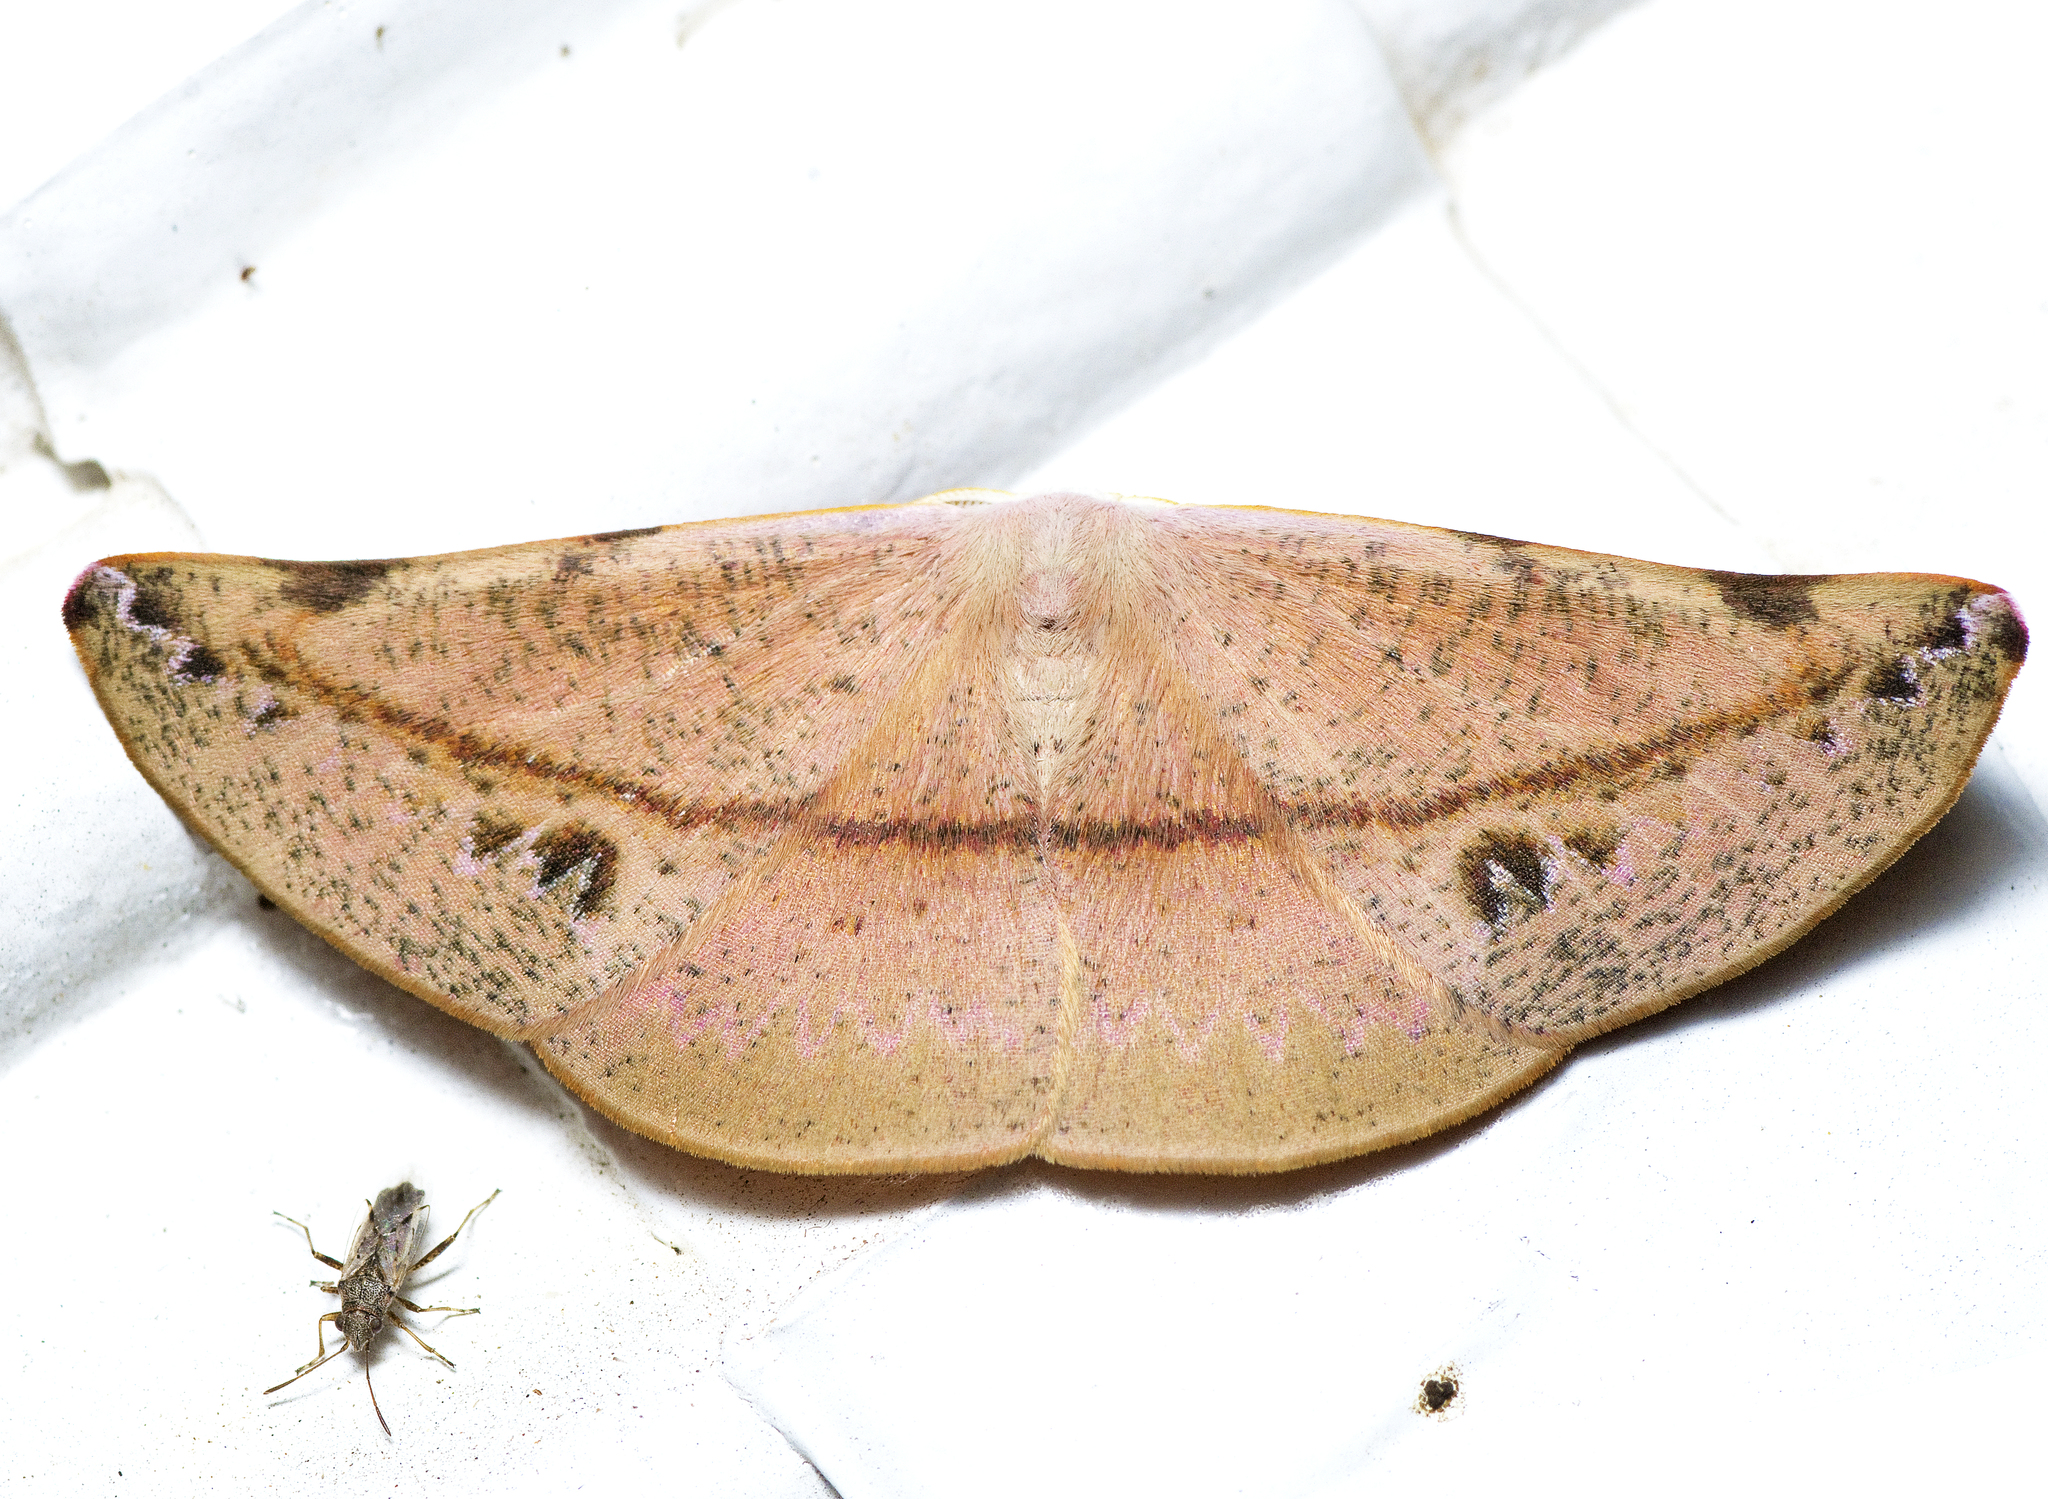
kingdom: Animalia
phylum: Arthropoda
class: Insecta
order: Lepidoptera
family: Geometridae
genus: Onycodes
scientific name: Onycodes rubra
